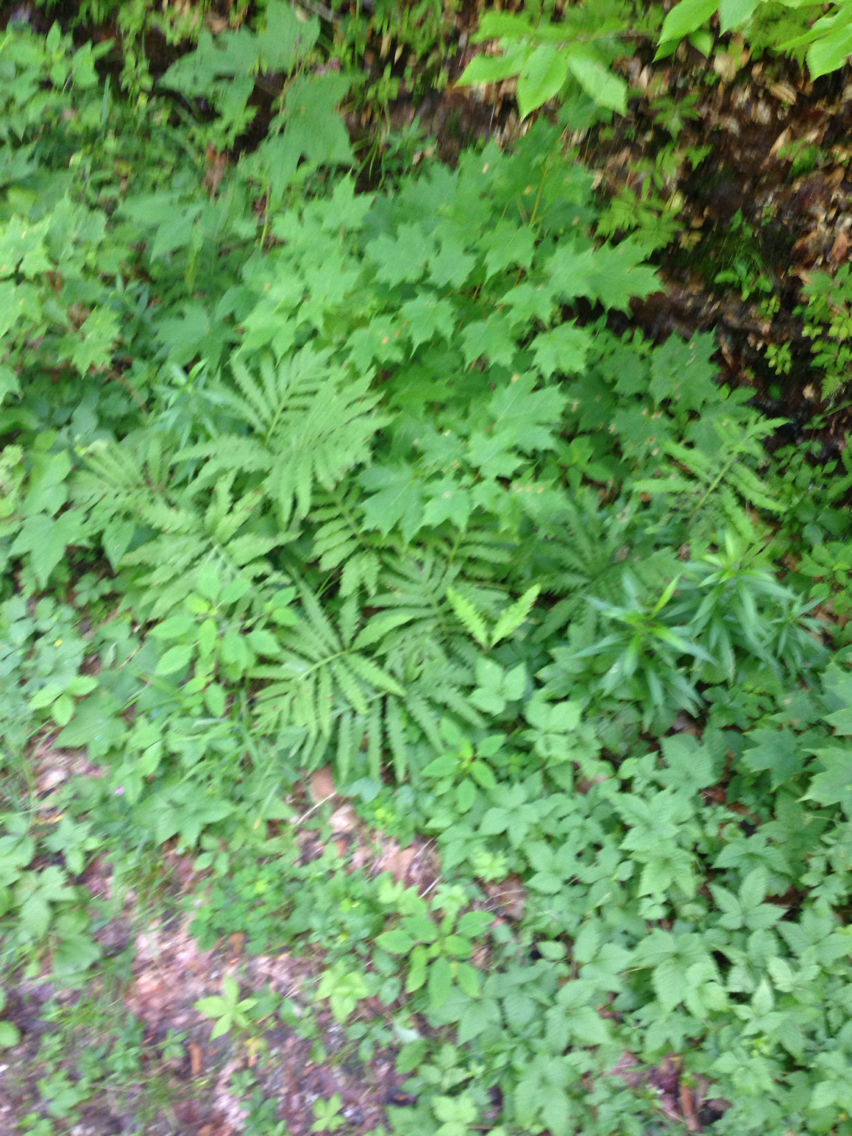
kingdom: Plantae
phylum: Tracheophyta
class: Polypodiopsida
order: Polypodiales
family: Onocleaceae
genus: Onoclea
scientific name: Onoclea sensibilis
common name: Sensitive fern
